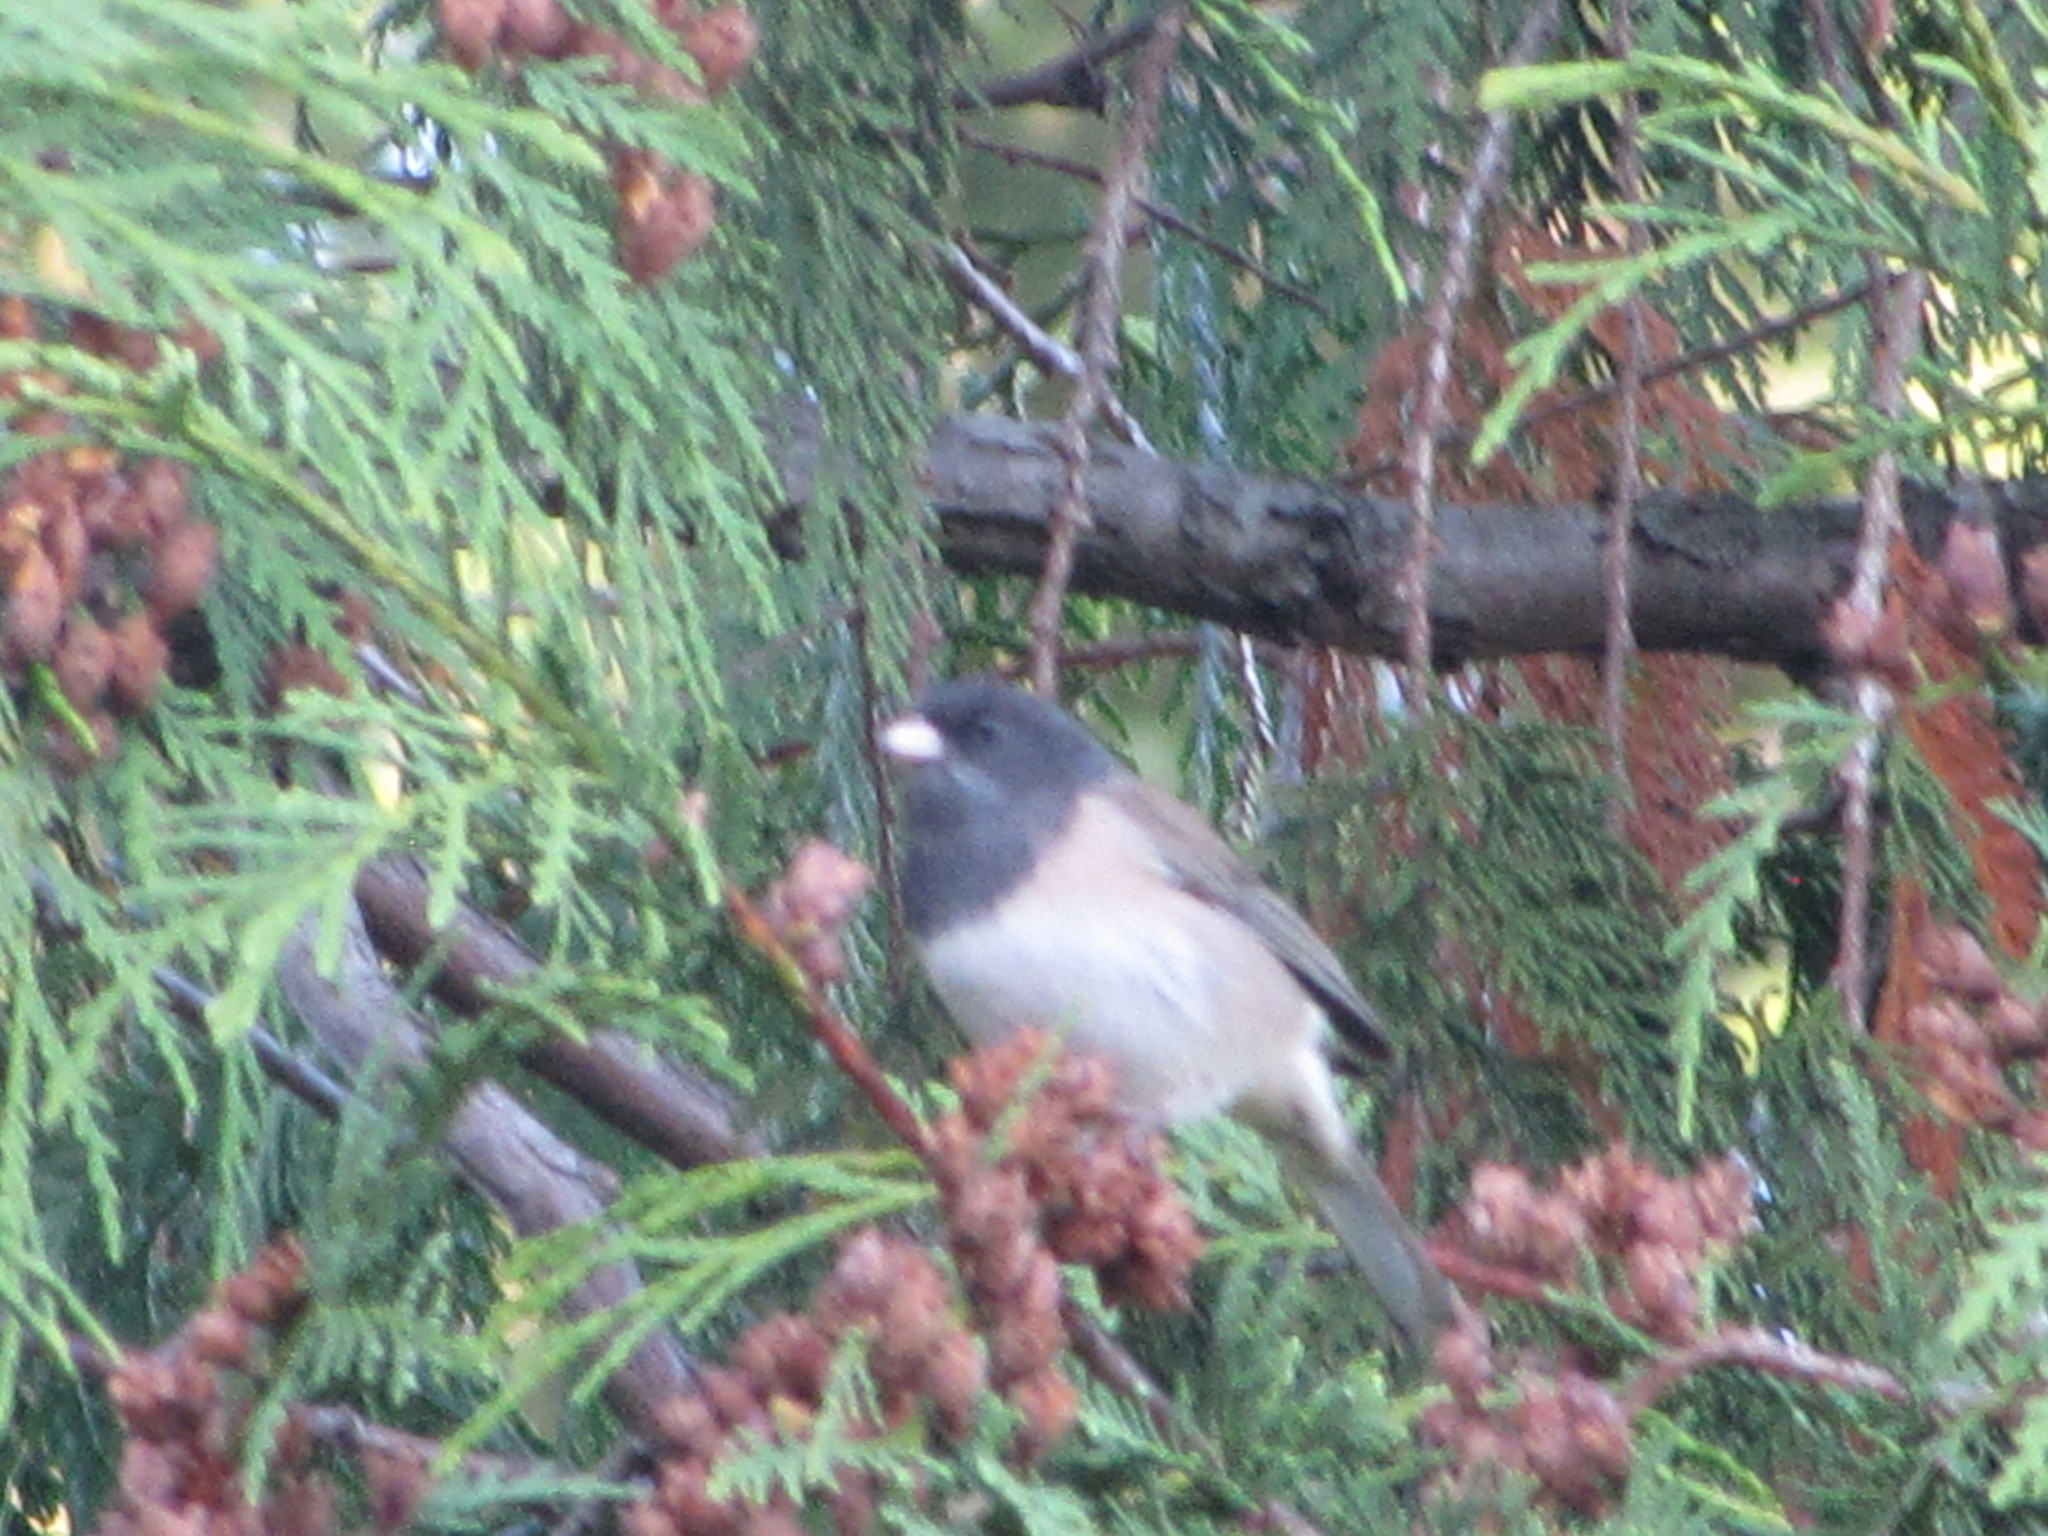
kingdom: Animalia
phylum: Chordata
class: Aves
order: Passeriformes
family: Passerellidae
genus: Junco
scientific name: Junco hyemalis
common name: Dark-eyed junco
